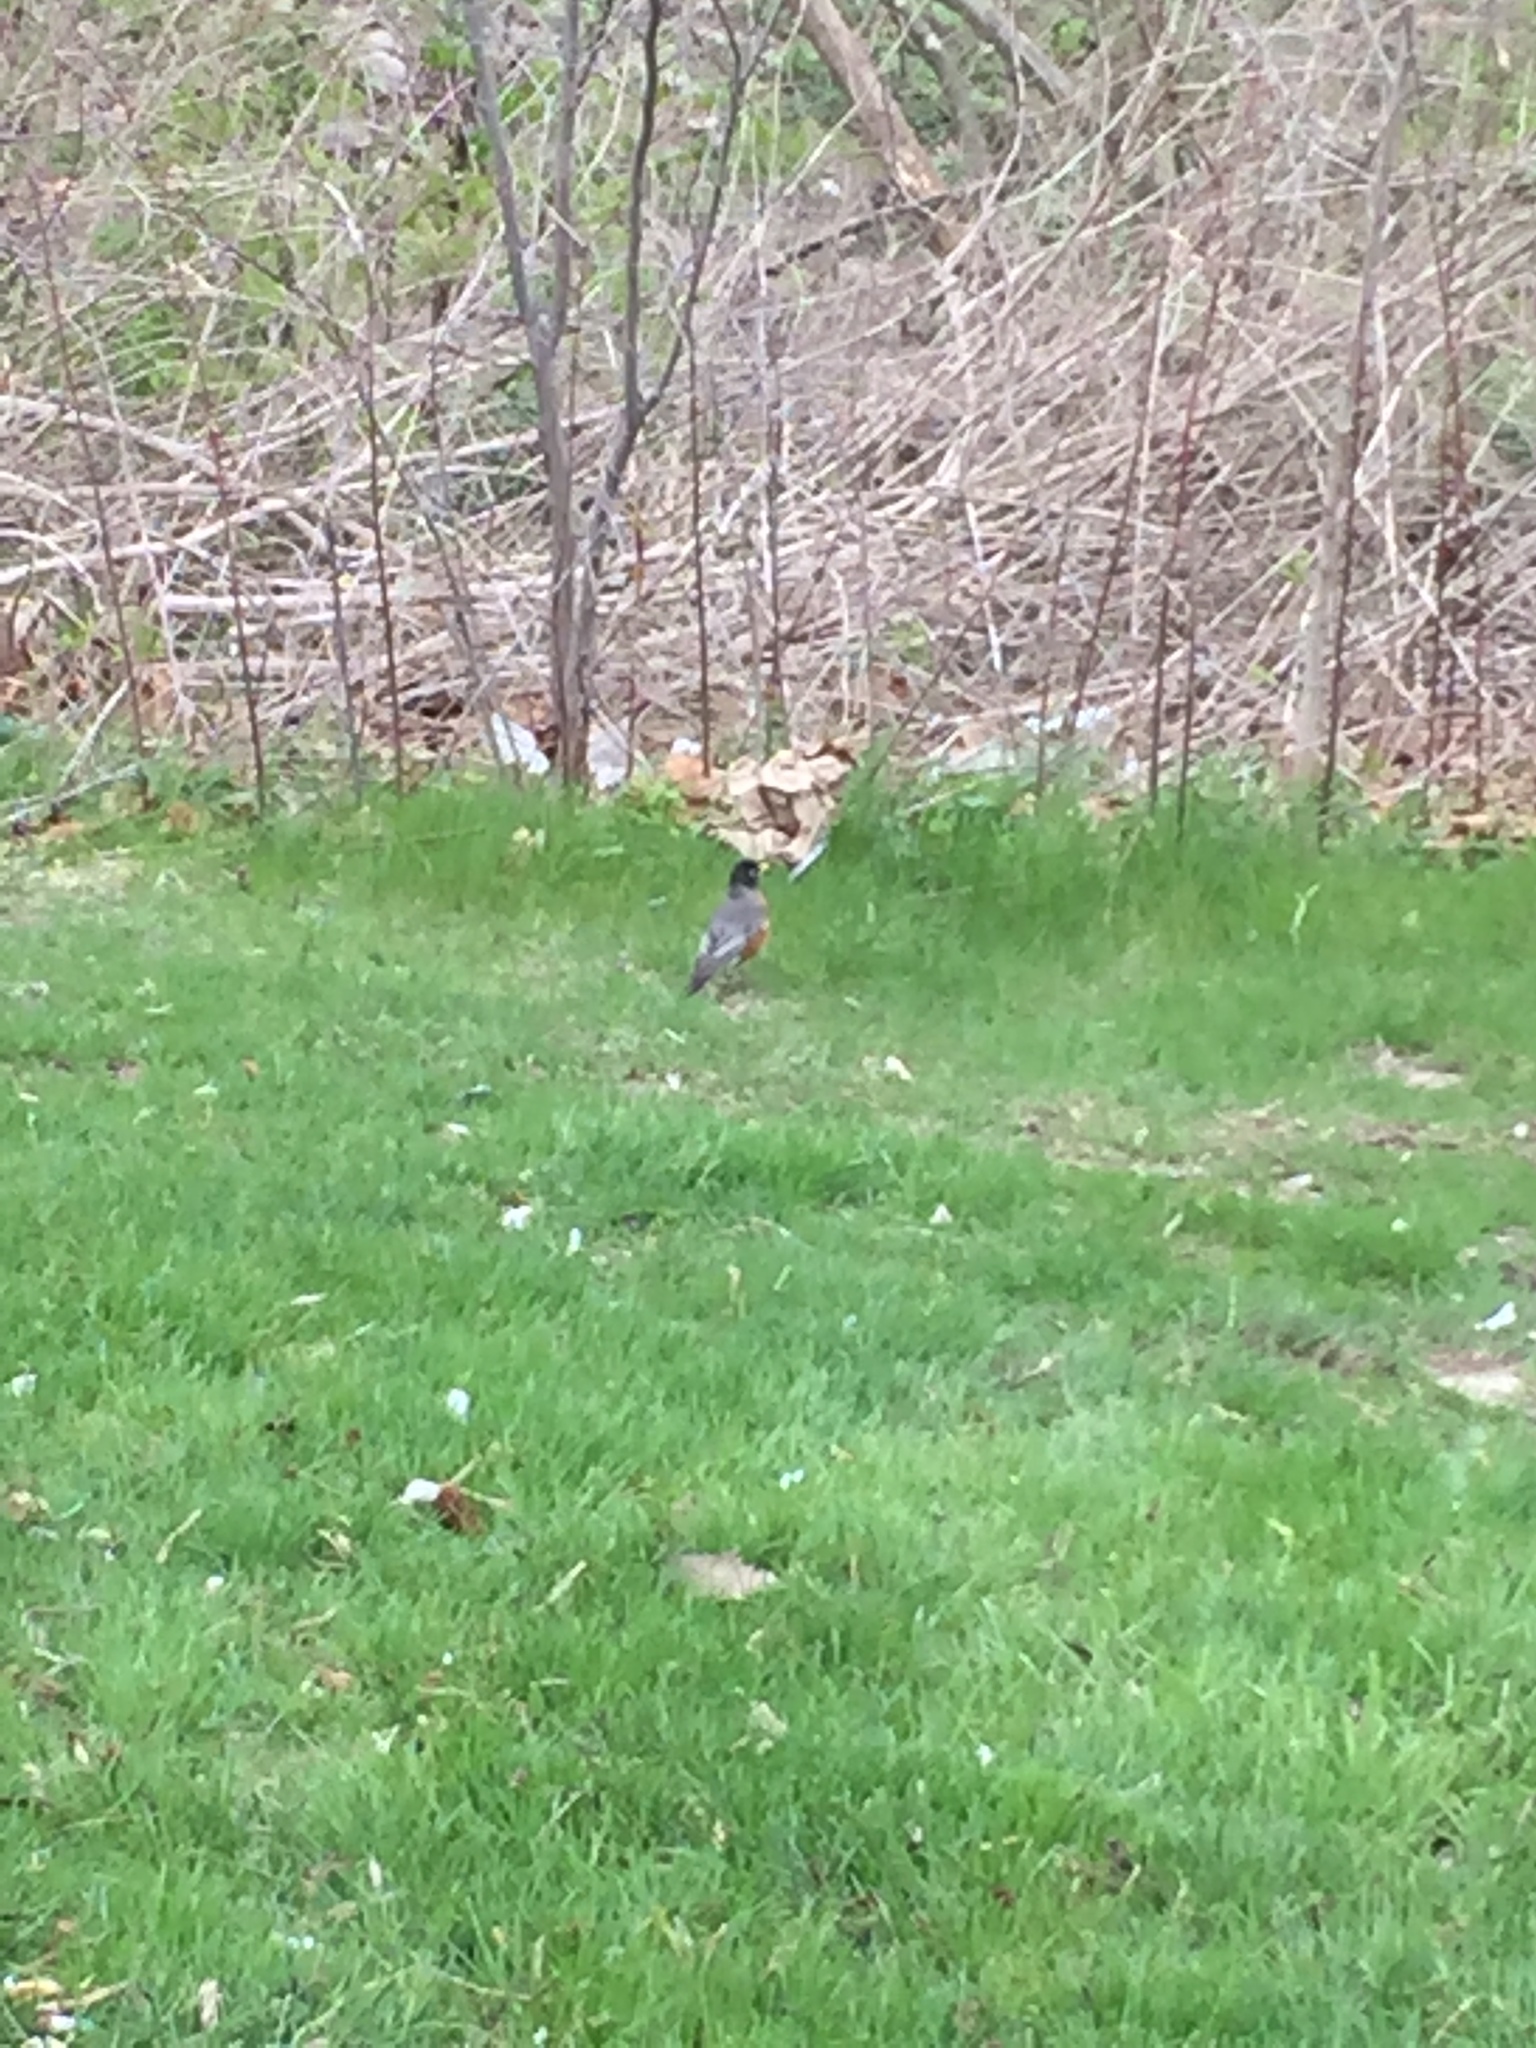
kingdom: Animalia
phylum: Chordata
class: Aves
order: Passeriformes
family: Turdidae
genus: Turdus
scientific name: Turdus migratorius
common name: American robin
